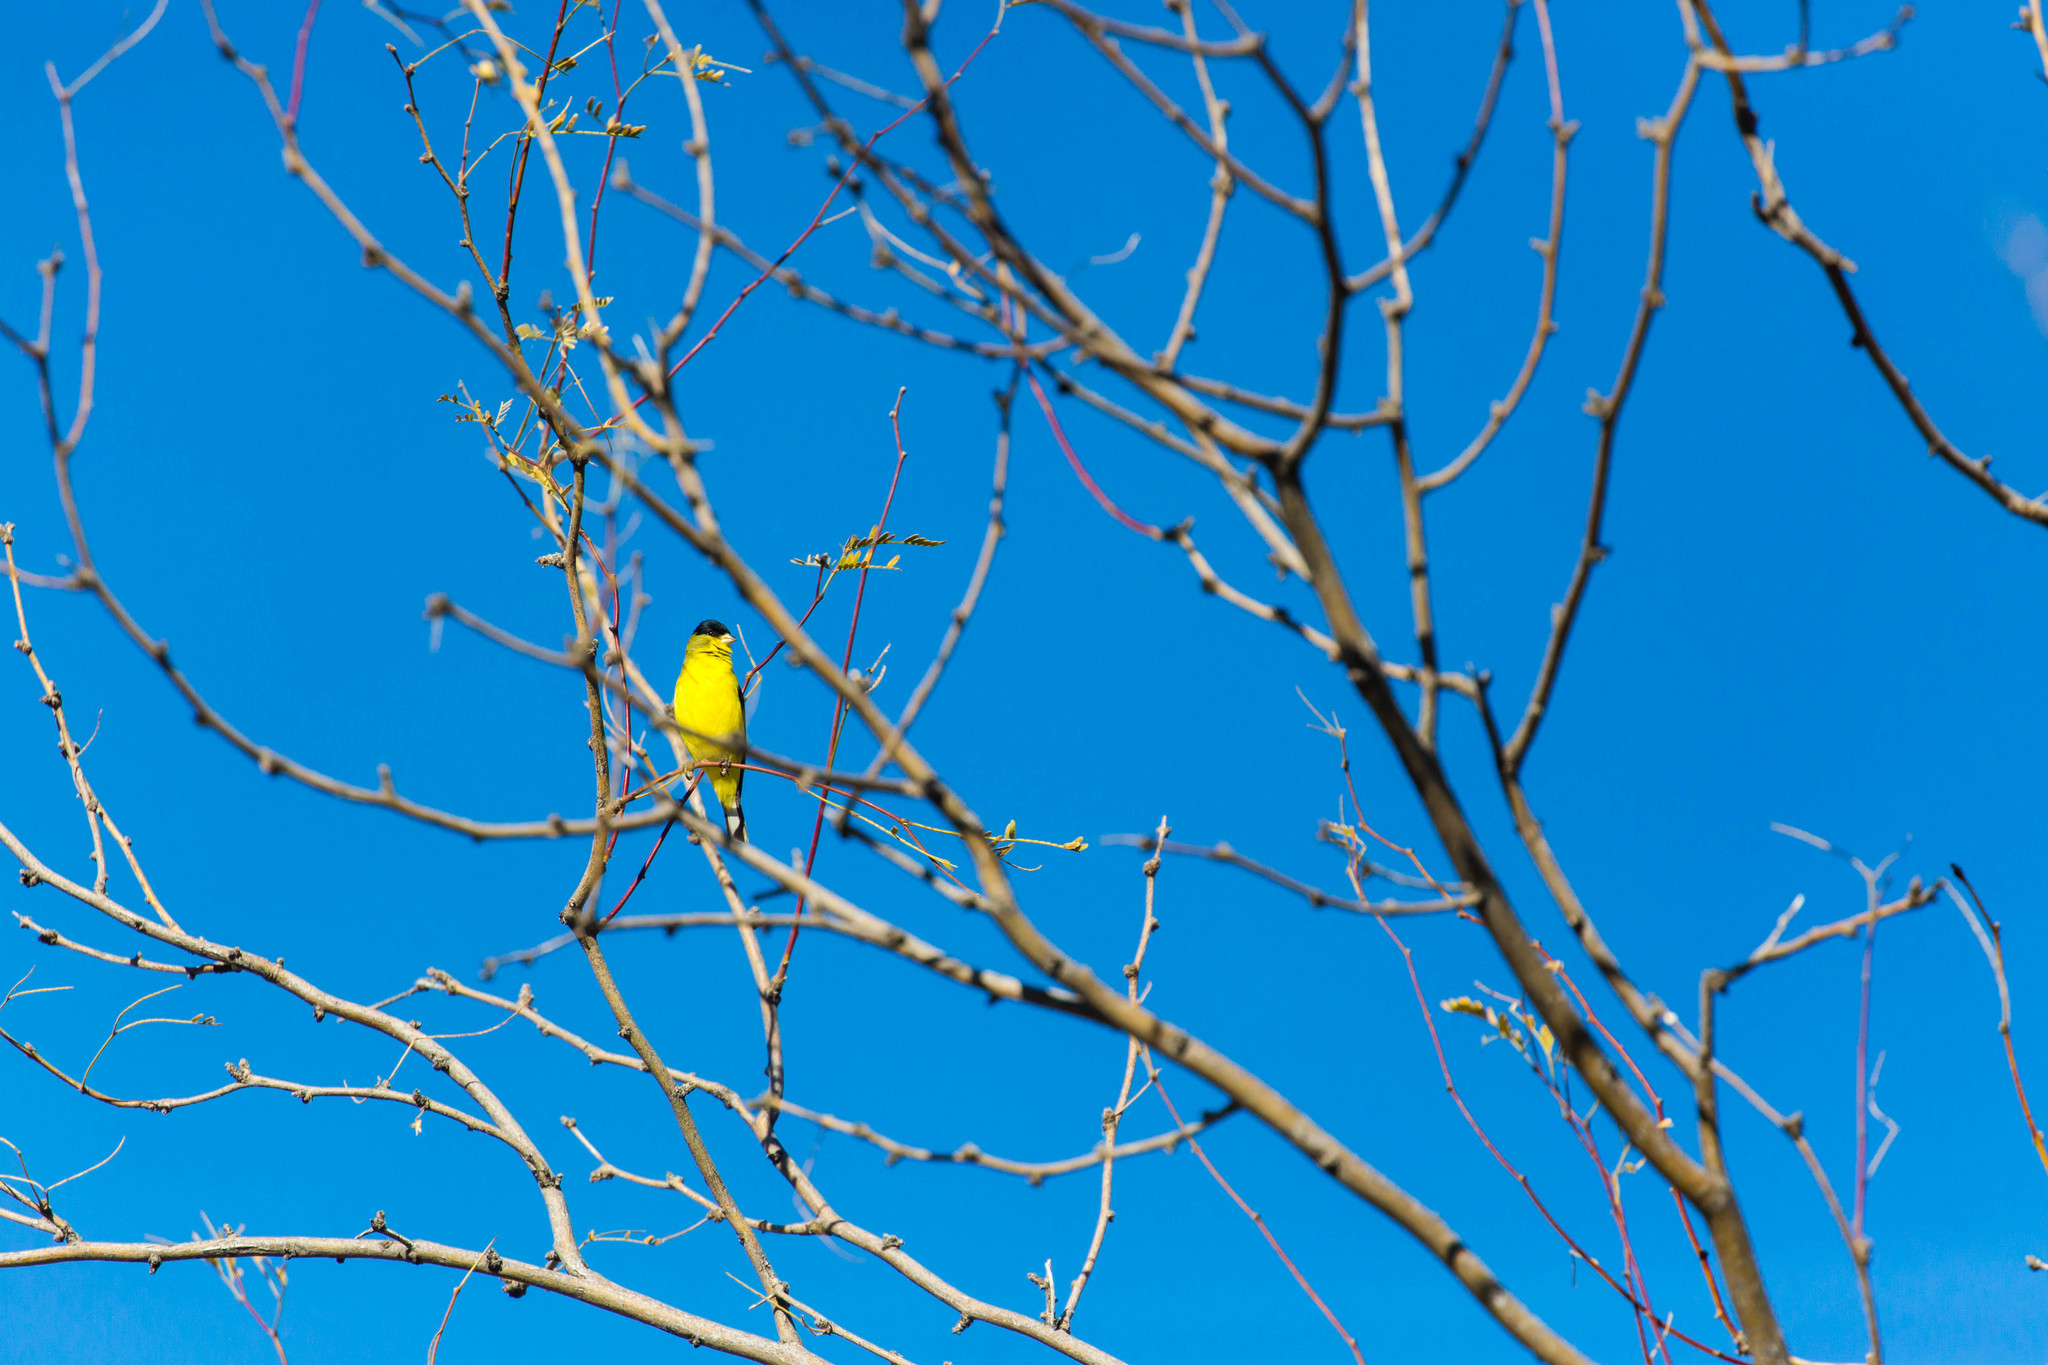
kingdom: Animalia
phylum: Chordata
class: Aves
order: Passeriformes
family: Fringillidae
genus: Spinus
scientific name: Spinus psaltria
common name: Lesser goldfinch
